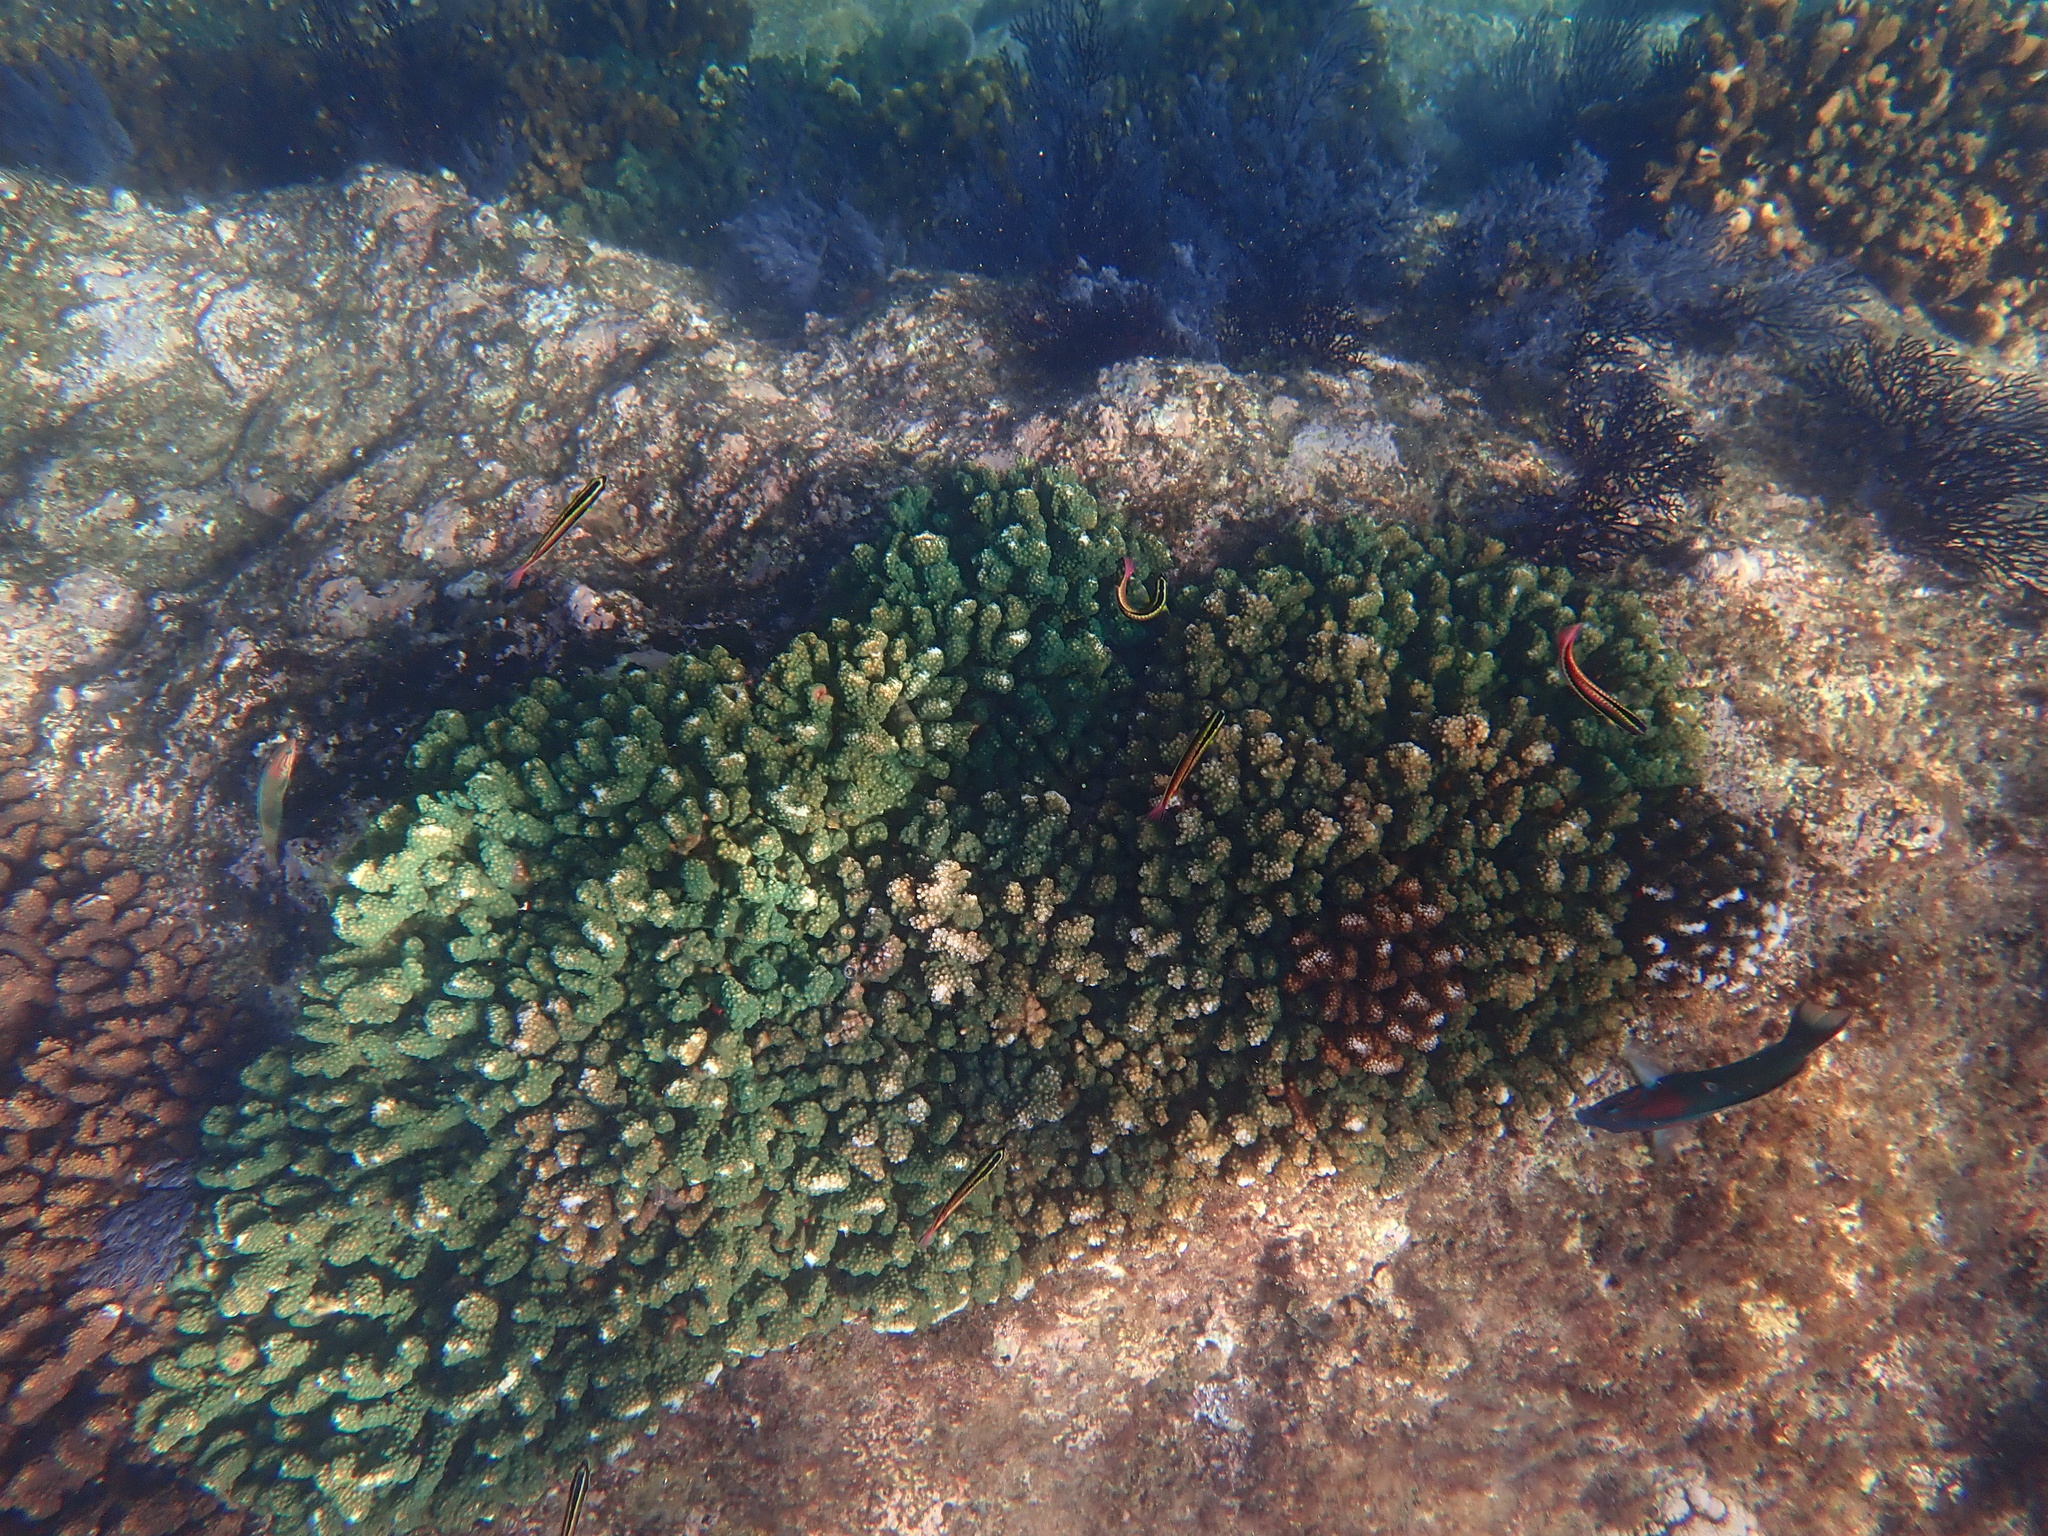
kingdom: Animalia
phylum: Cnidaria
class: Anthozoa
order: Scleractinia
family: Pocilloporidae
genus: Pocillopora
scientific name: Pocillopora verrucosa
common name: Cauliflower coral
